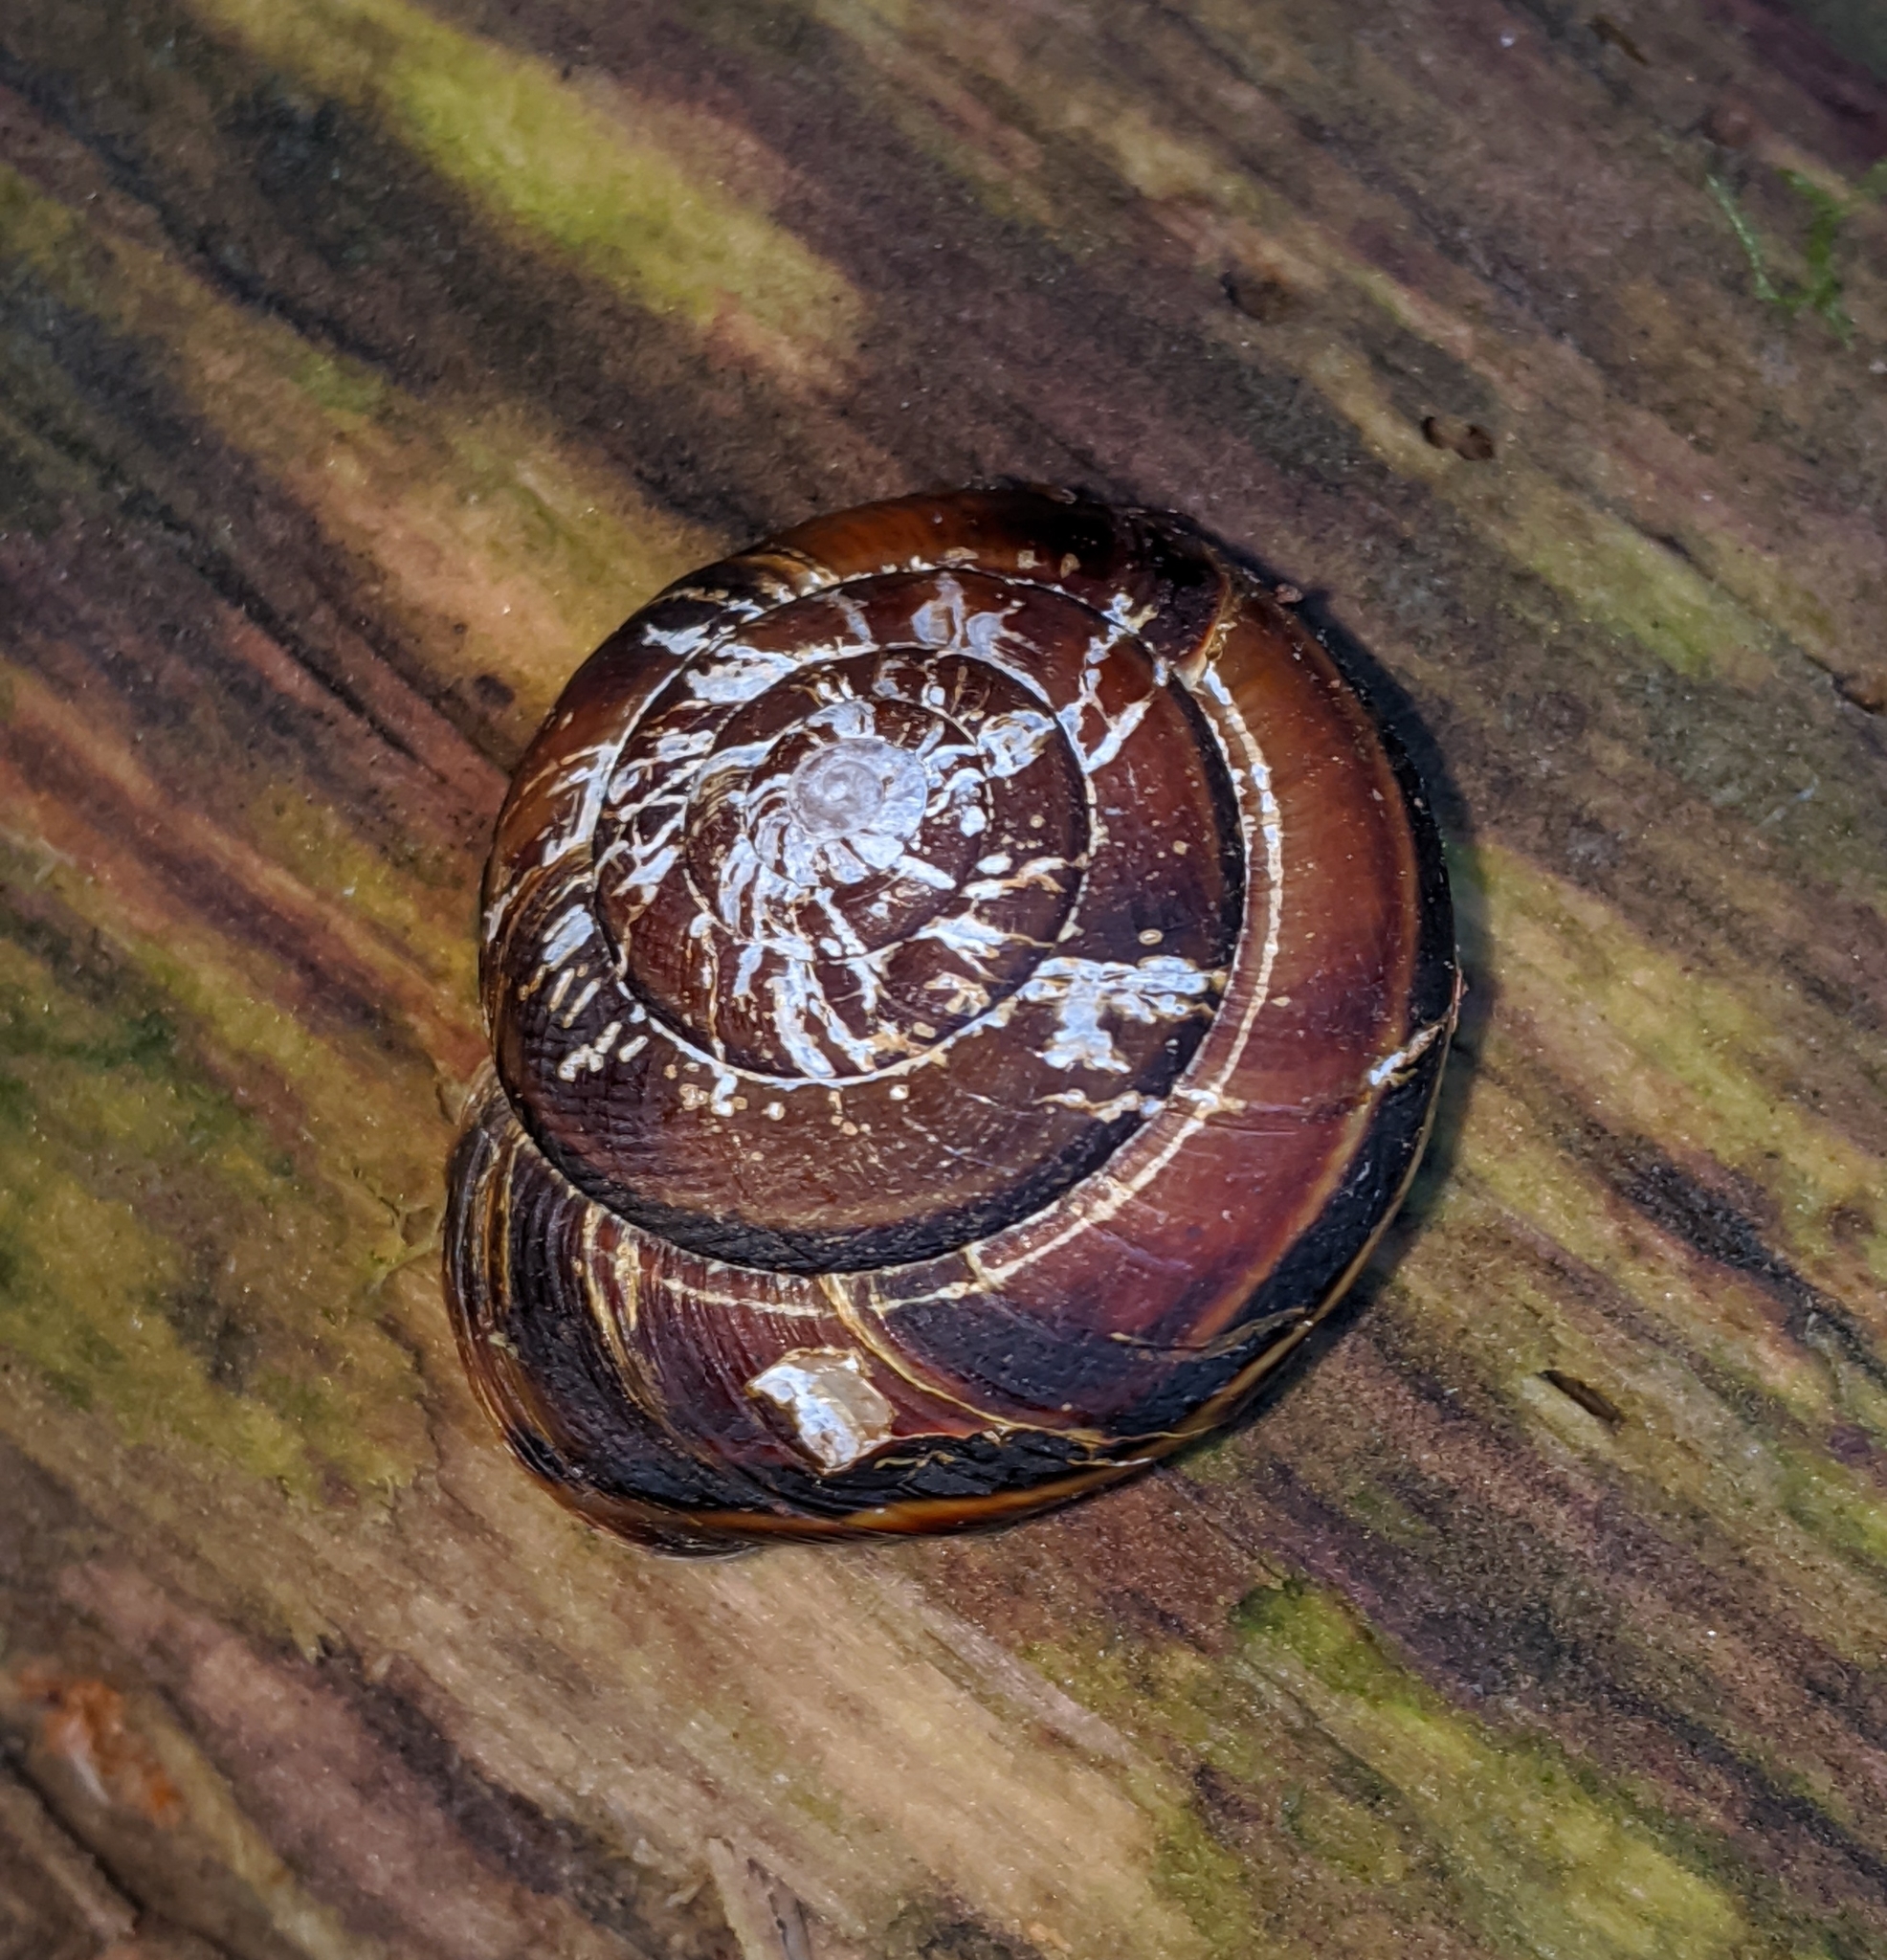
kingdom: Animalia
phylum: Mollusca
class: Gastropoda
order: Stylommatophora
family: Xanthonychidae
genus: Monadenia
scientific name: Monadenia fidelis
